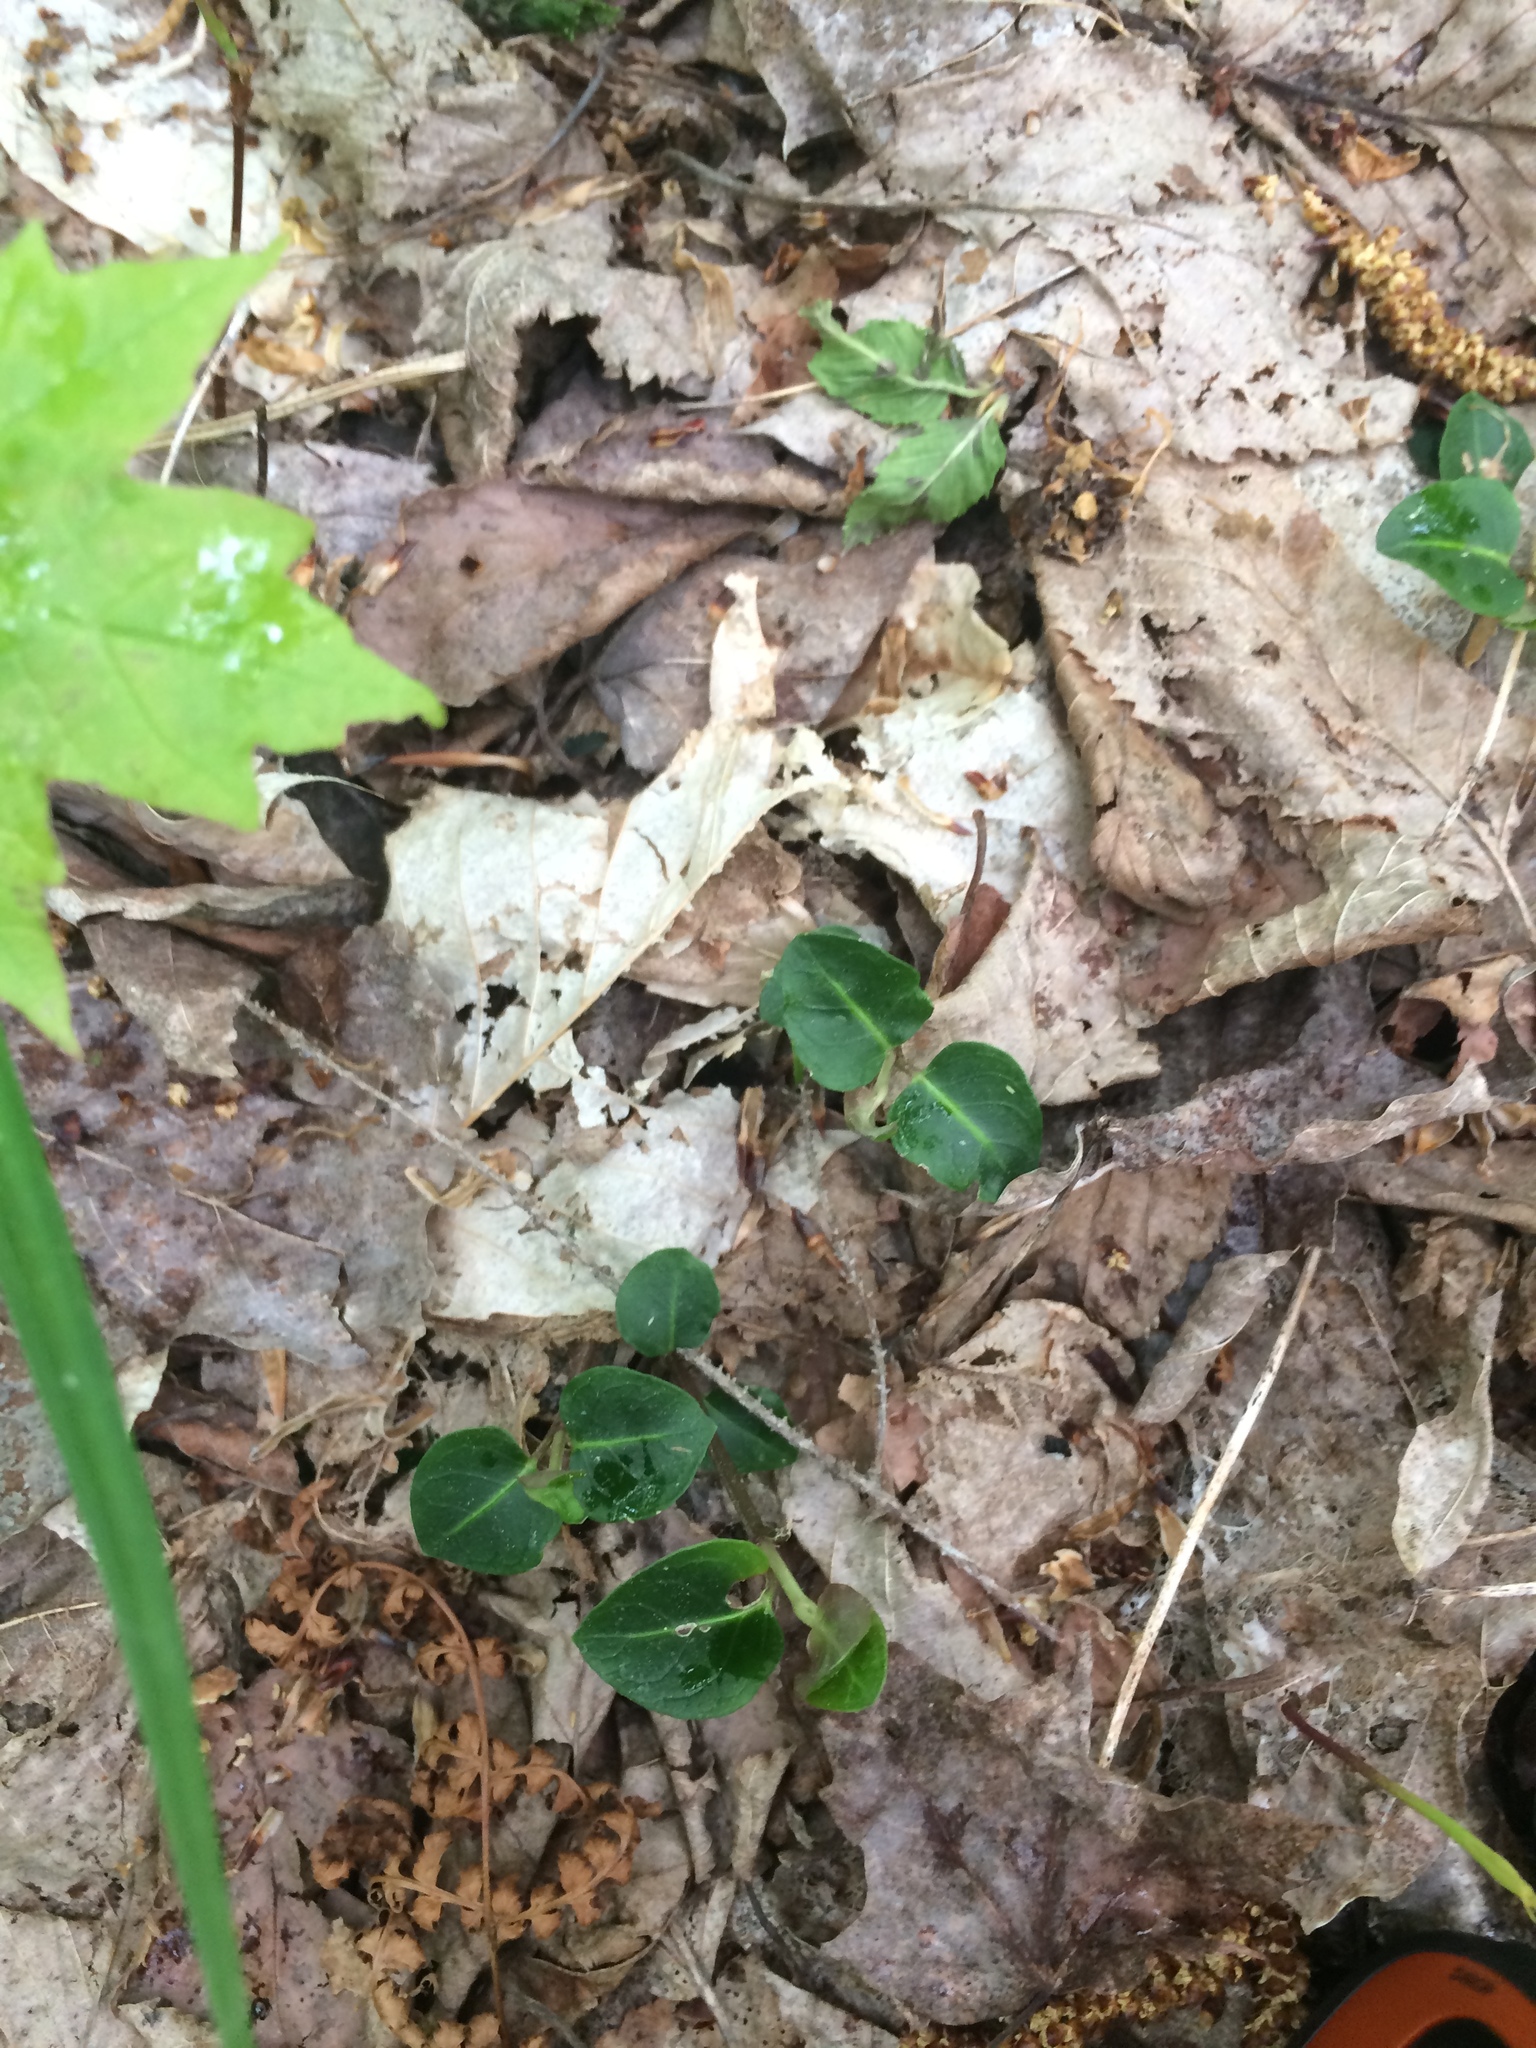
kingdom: Plantae
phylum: Tracheophyta
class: Magnoliopsida
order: Gentianales
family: Rubiaceae
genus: Mitchella
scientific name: Mitchella repens
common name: Partridge-berry
